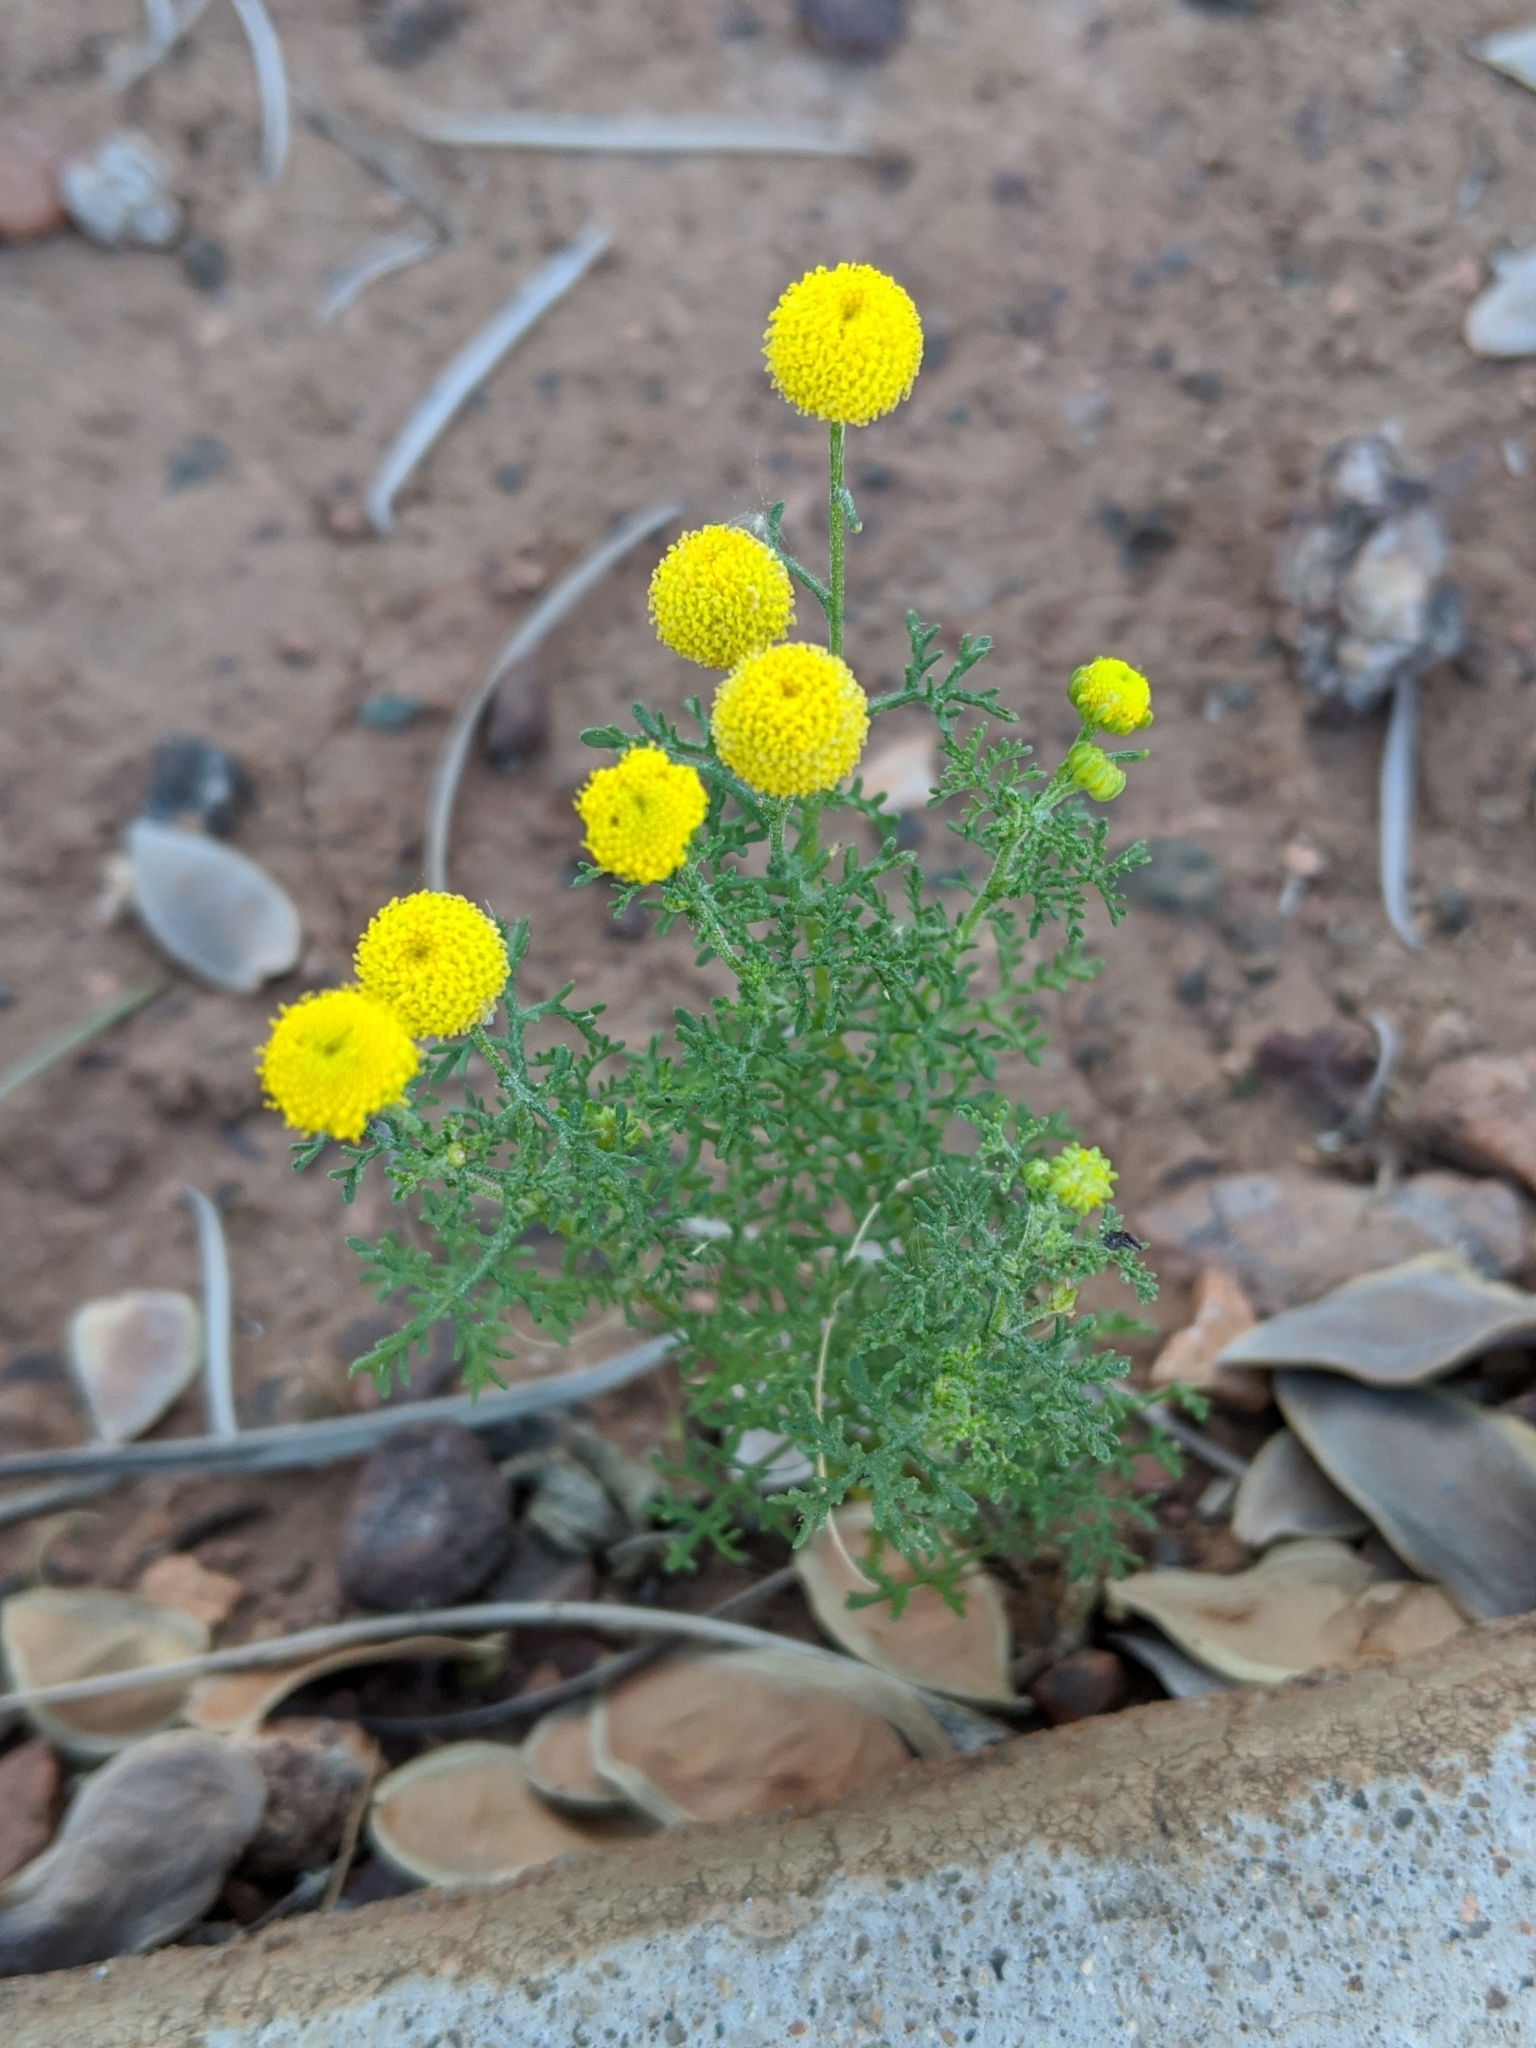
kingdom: Plantae
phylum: Tracheophyta
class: Magnoliopsida
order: Asterales
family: Asteraceae
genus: Oncosiphon
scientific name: Oncosiphon pilulifer
